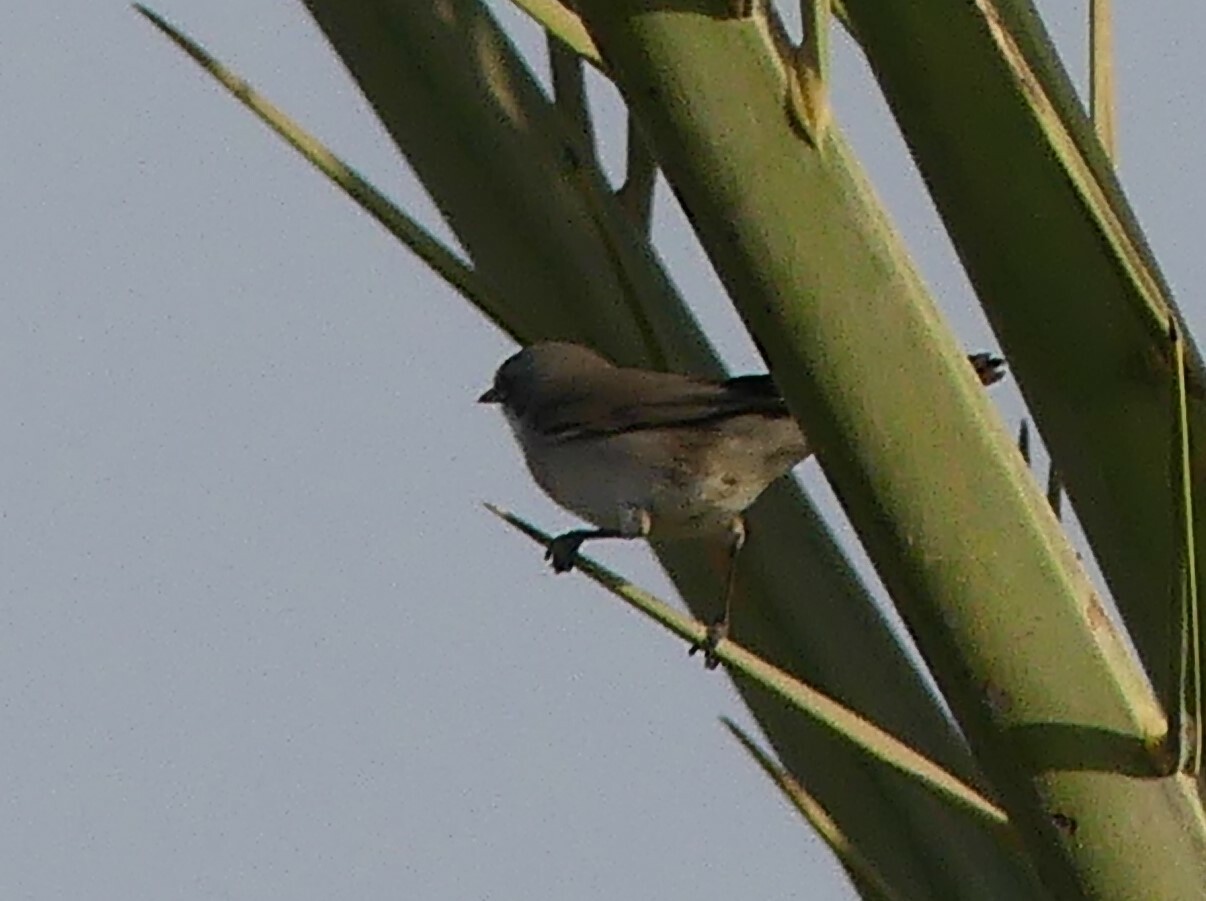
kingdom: Animalia
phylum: Chordata
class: Aves
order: Passeriformes
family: Sylviidae
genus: Sylvia
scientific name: Sylvia curruca
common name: Lesser whitethroat
